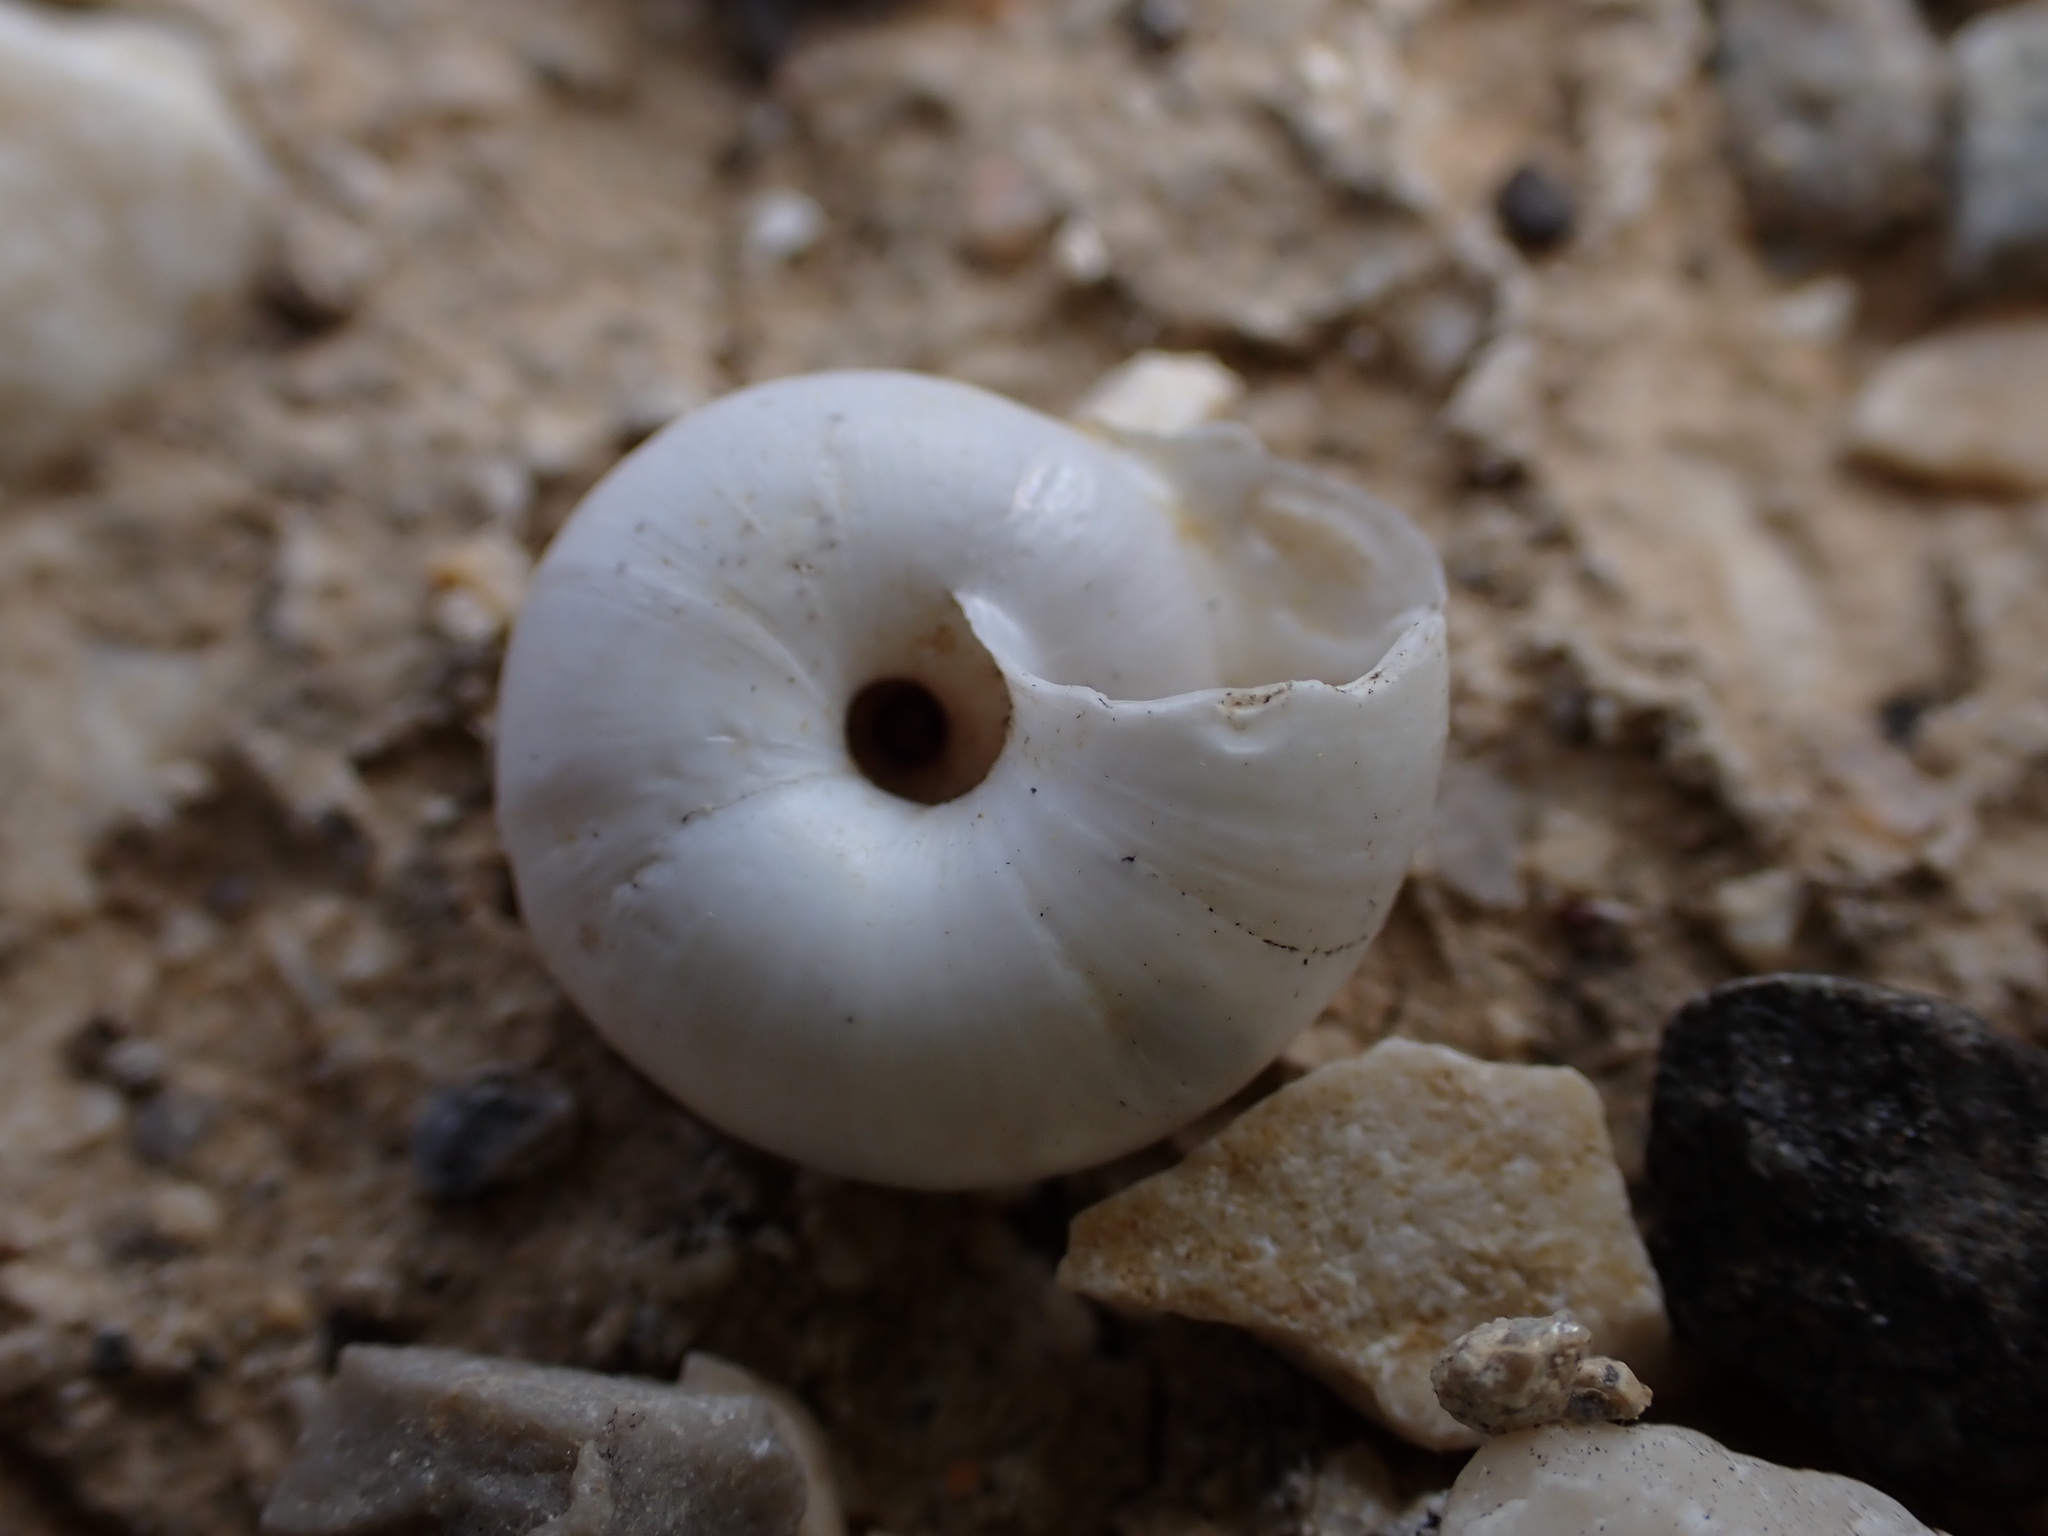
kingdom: Animalia
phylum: Mollusca
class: Gastropoda
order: Stylommatophora
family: Geomitridae
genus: Xeropicta
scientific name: Xeropicta derbentina
